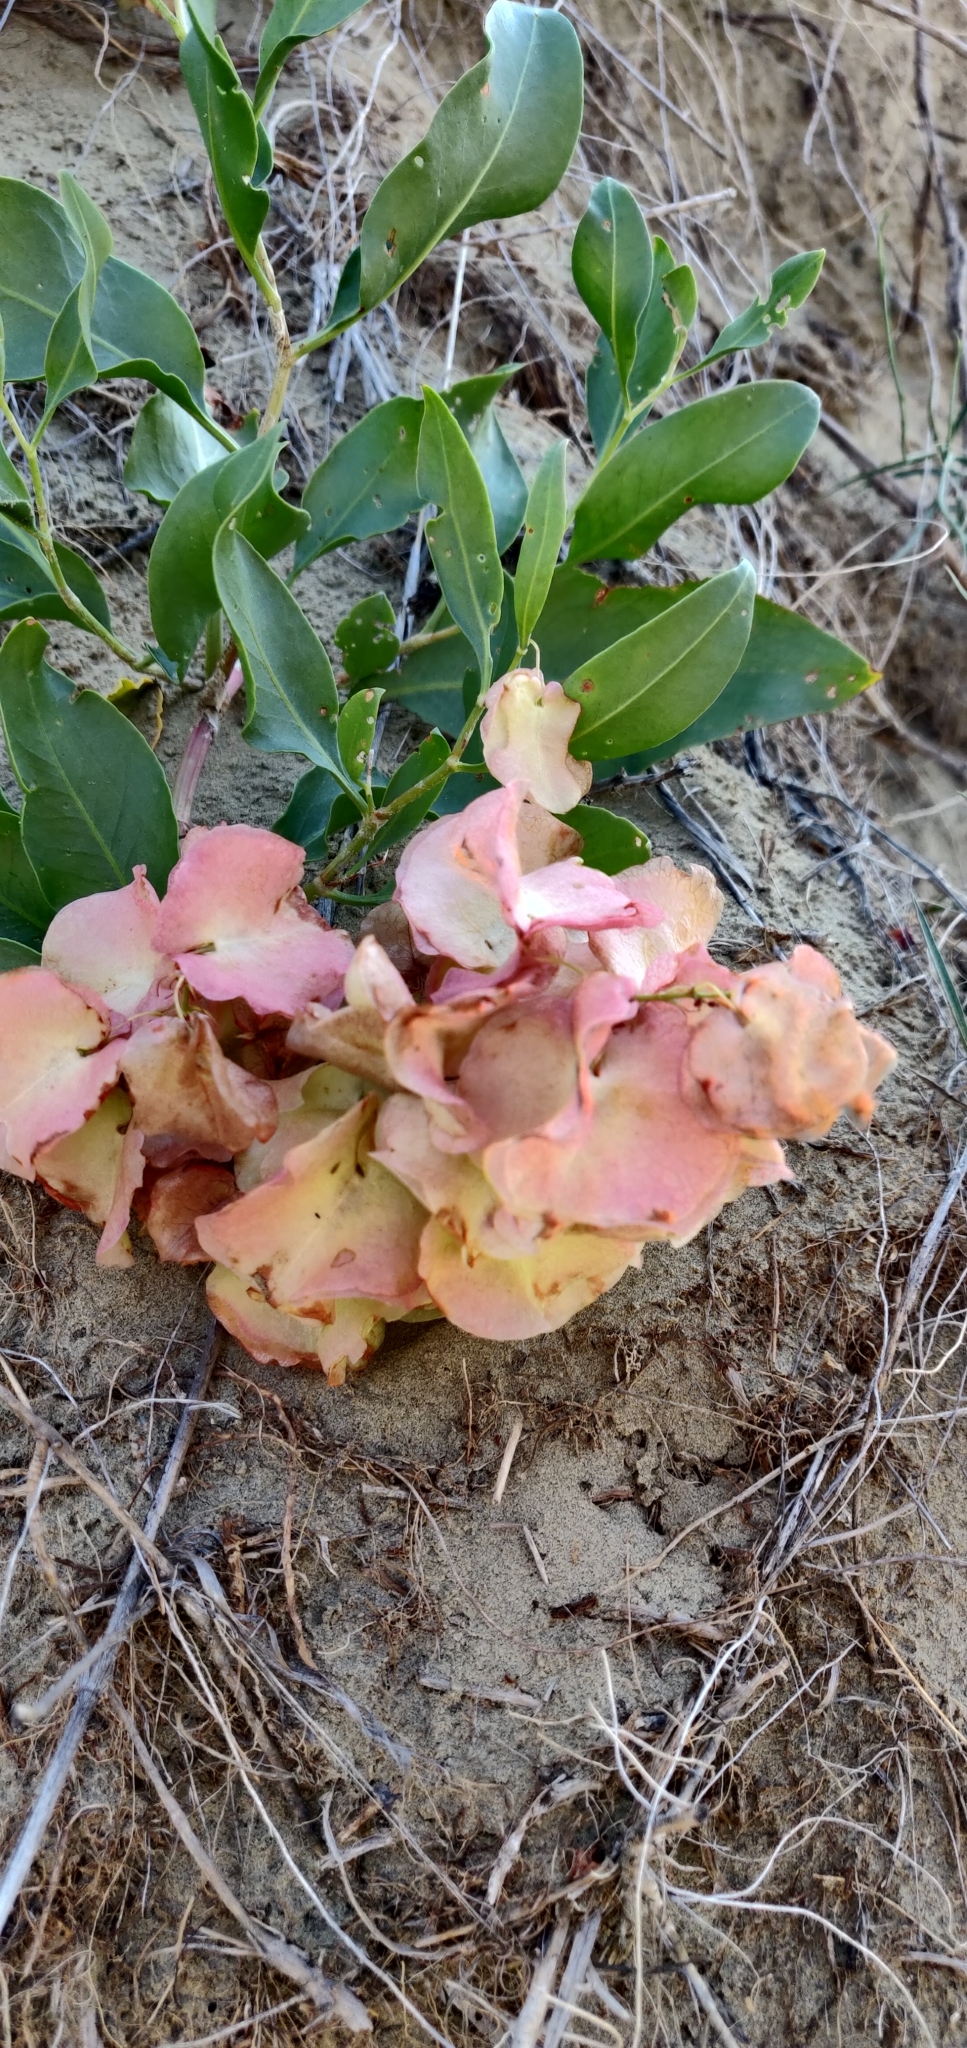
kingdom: Plantae
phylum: Tracheophyta
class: Magnoliopsida
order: Caryophyllales
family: Polygonaceae
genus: Rumex
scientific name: Rumex venosus
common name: Winged dock
